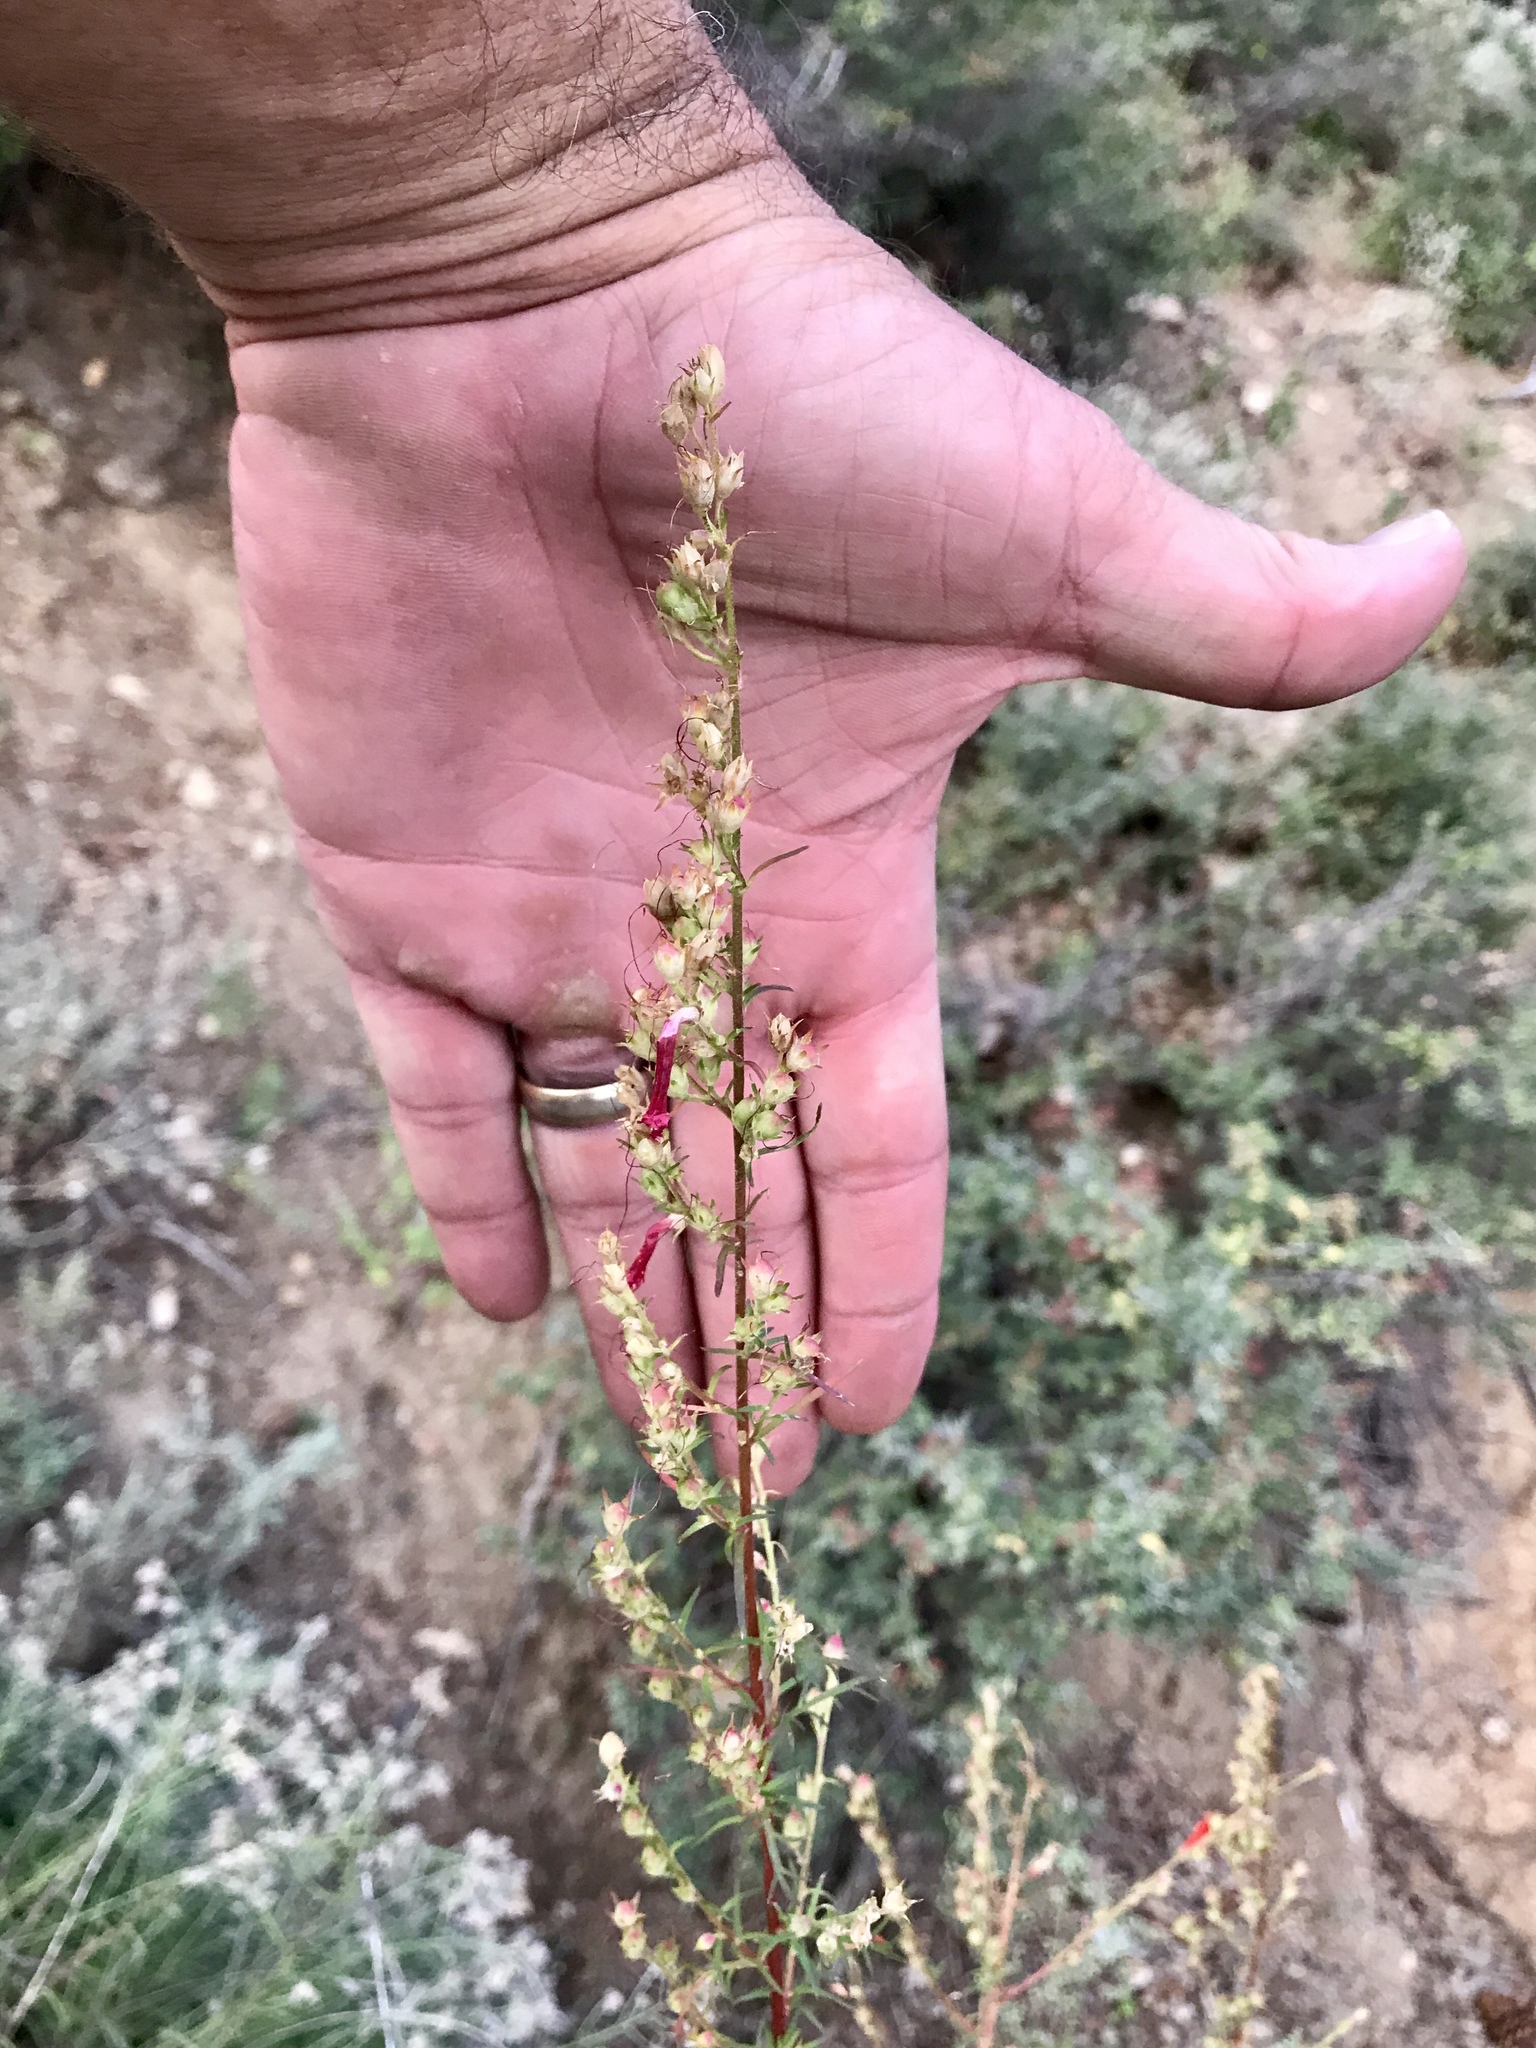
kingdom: Plantae
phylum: Tracheophyta
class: Magnoliopsida
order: Ericales
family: Polemoniaceae
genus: Ipomopsis
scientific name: Ipomopsis aggregata
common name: Scarlet gilia
